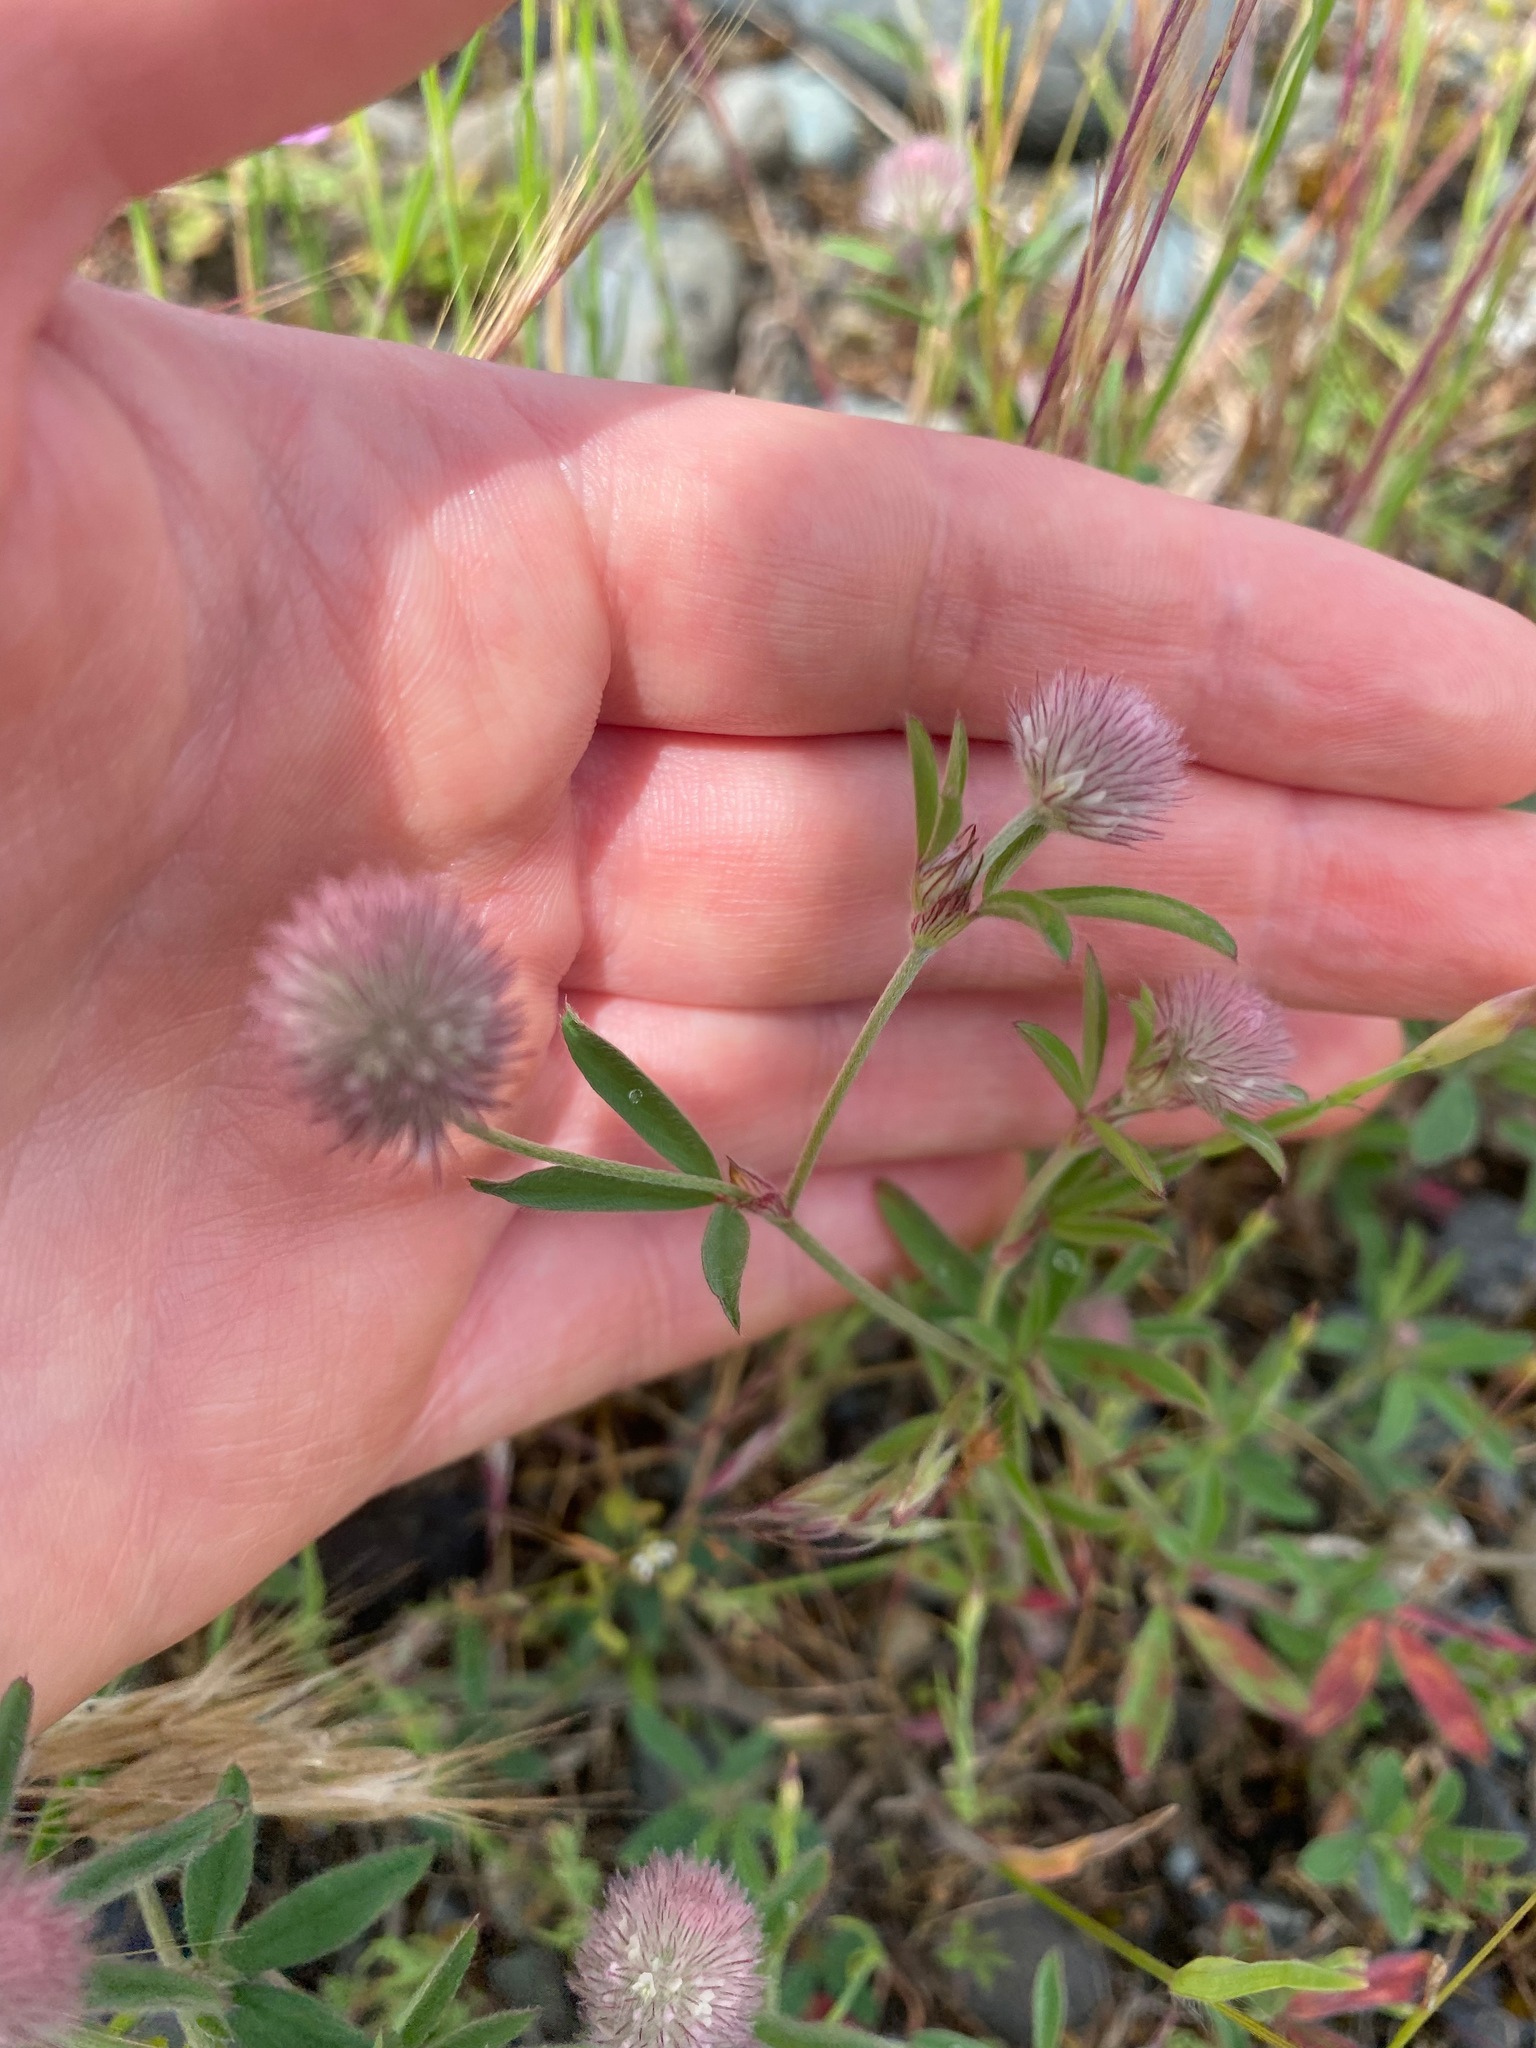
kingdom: Plantae
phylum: Tracheophyta
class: Magnoliopsida
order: Fabales
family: Fabaceae
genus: Trifolium
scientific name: Trifolium arvense
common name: Hare's-foot clover
